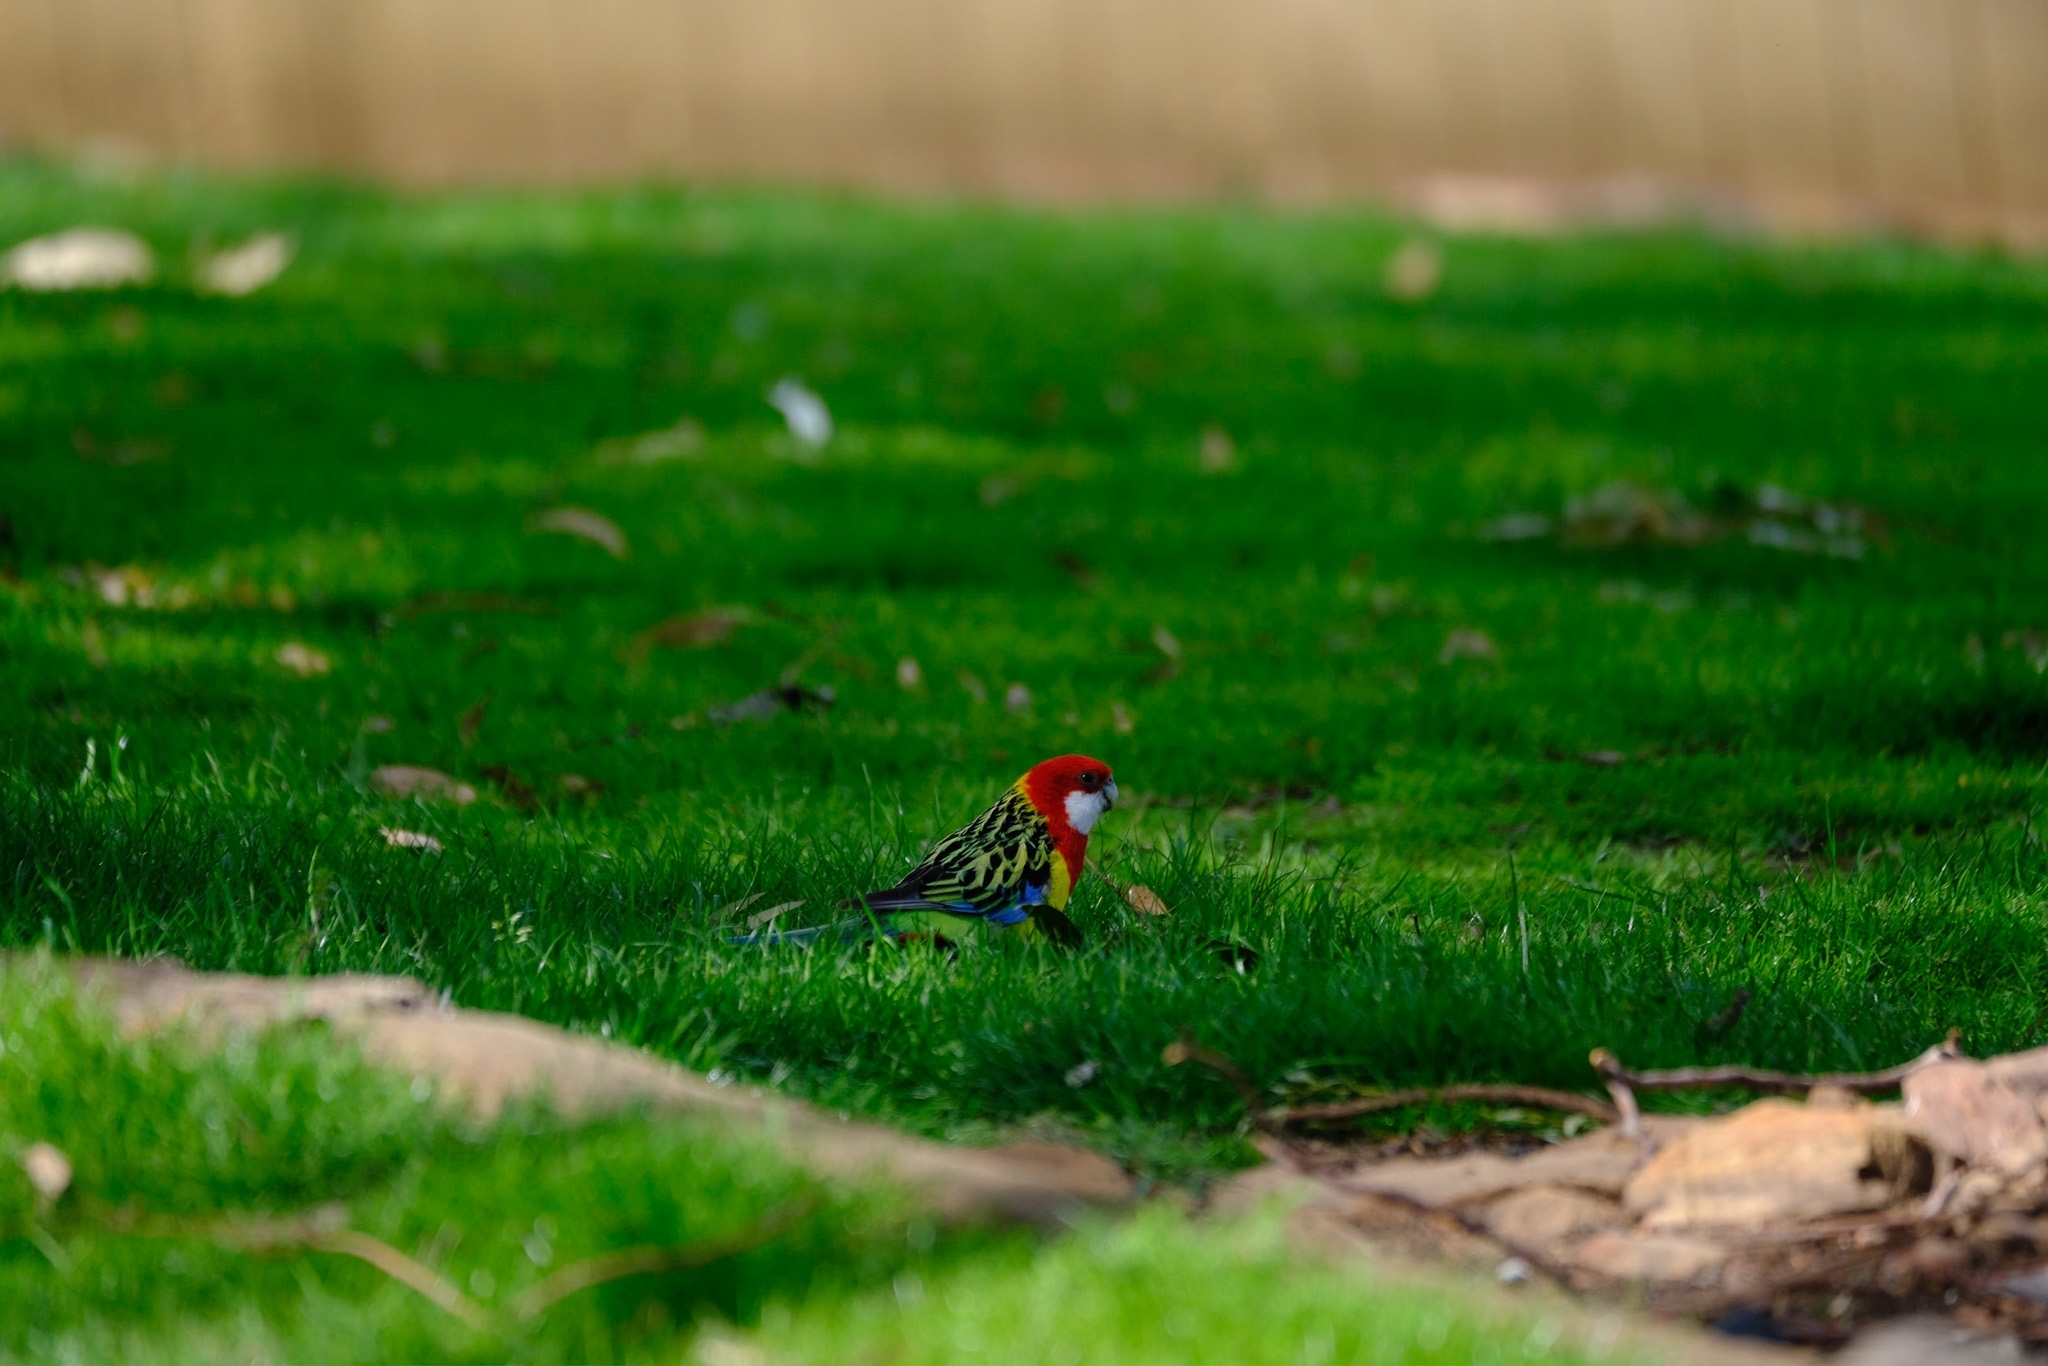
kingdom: Animalia
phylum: Chordata
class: Aves
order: Psittaciformes
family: Psittacidae
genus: Platycercus
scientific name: Platycercus eximius
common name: Eastern rosella
